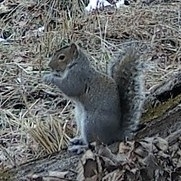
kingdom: Animalia
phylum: Chordata
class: Mammalia
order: Rodentia
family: Sciuridae
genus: Sciurus
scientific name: Sciurus carolinensis
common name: Eastern gray squirrel
